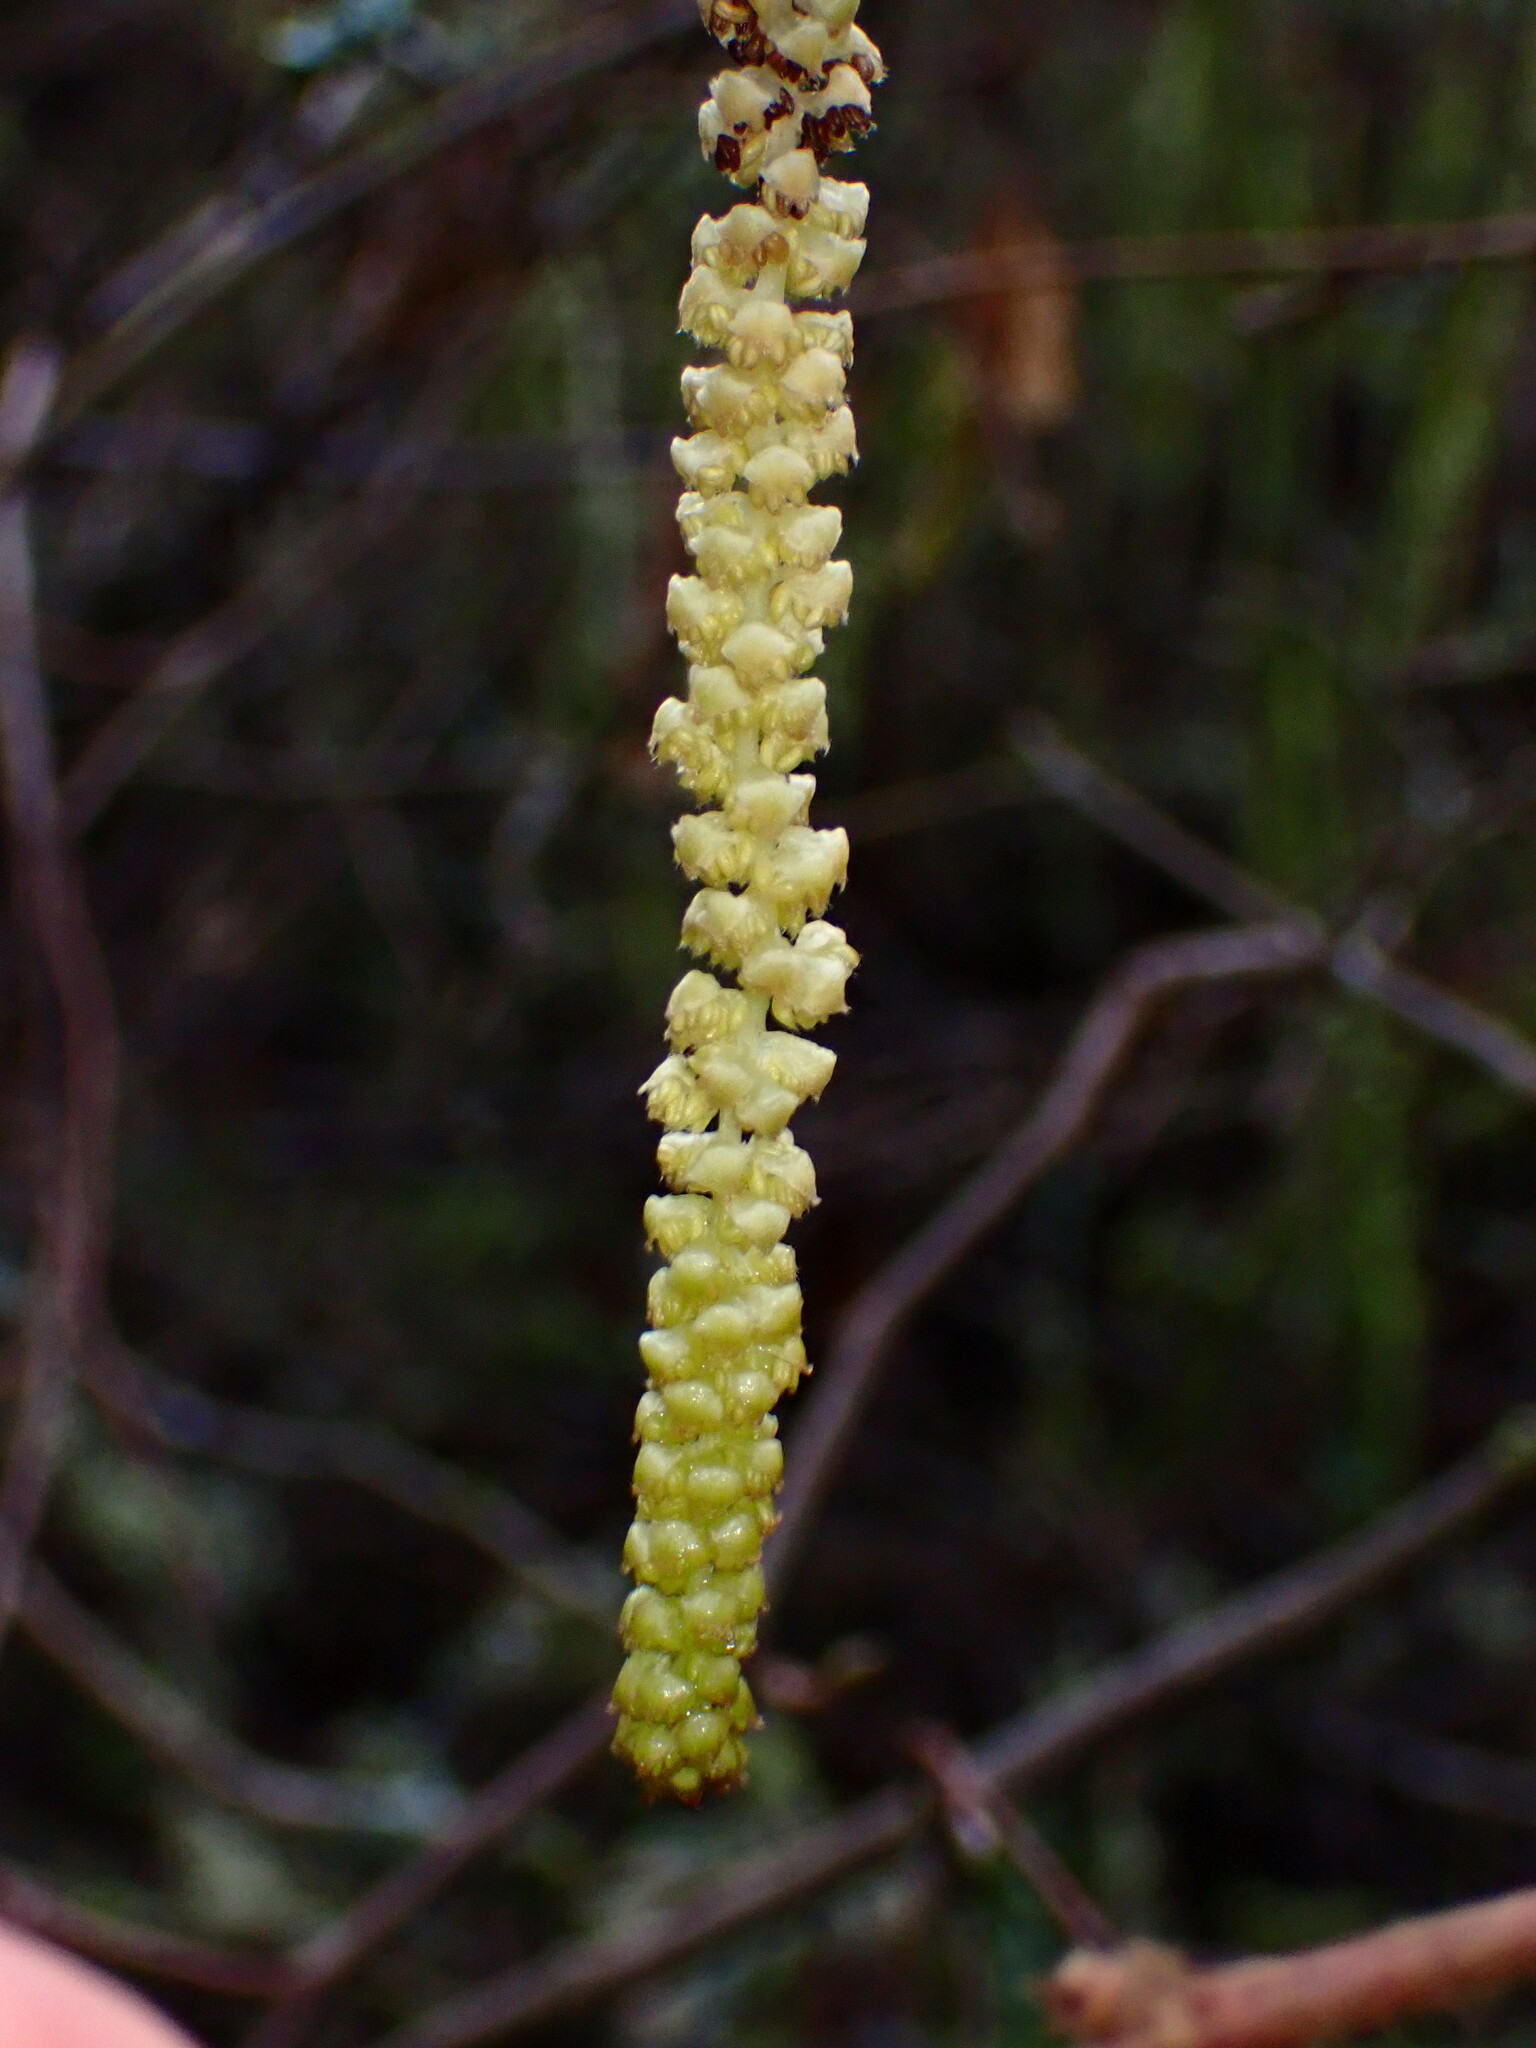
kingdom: Plantae
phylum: Tracheophyta
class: Magnoliopsida
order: Fagales
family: Betulaceae
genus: Corylus
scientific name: Corylus cornuta
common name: Beaked hazel
